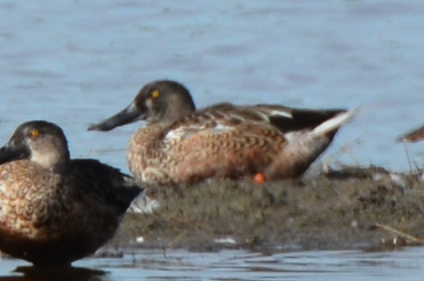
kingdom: Animalia
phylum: Chordata
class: Aves
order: Anseriformes
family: Anatidae
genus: Spatula
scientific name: Spatula clypeata
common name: Northern shoveler
